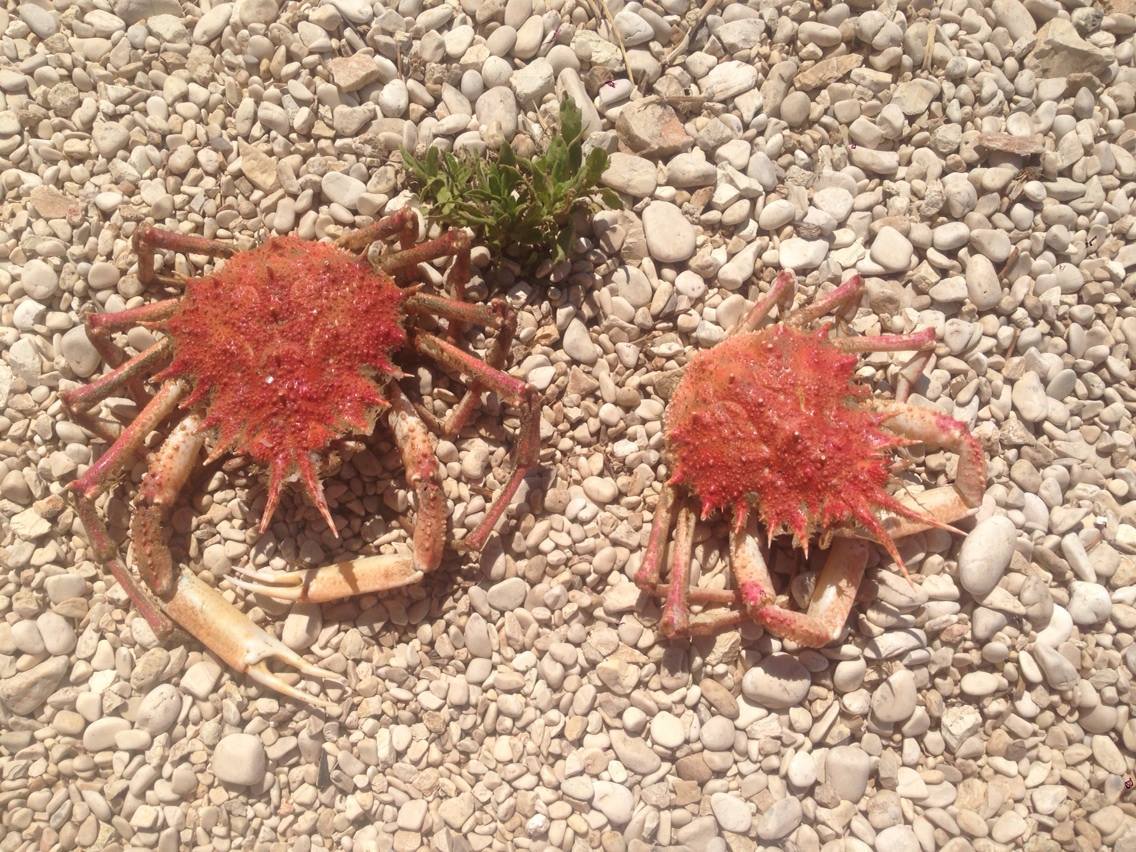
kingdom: Animalia
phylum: Arthropoda
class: Malacostraca
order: Decapoda
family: Majidae
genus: Neomaja
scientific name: Neomaja goltziana
